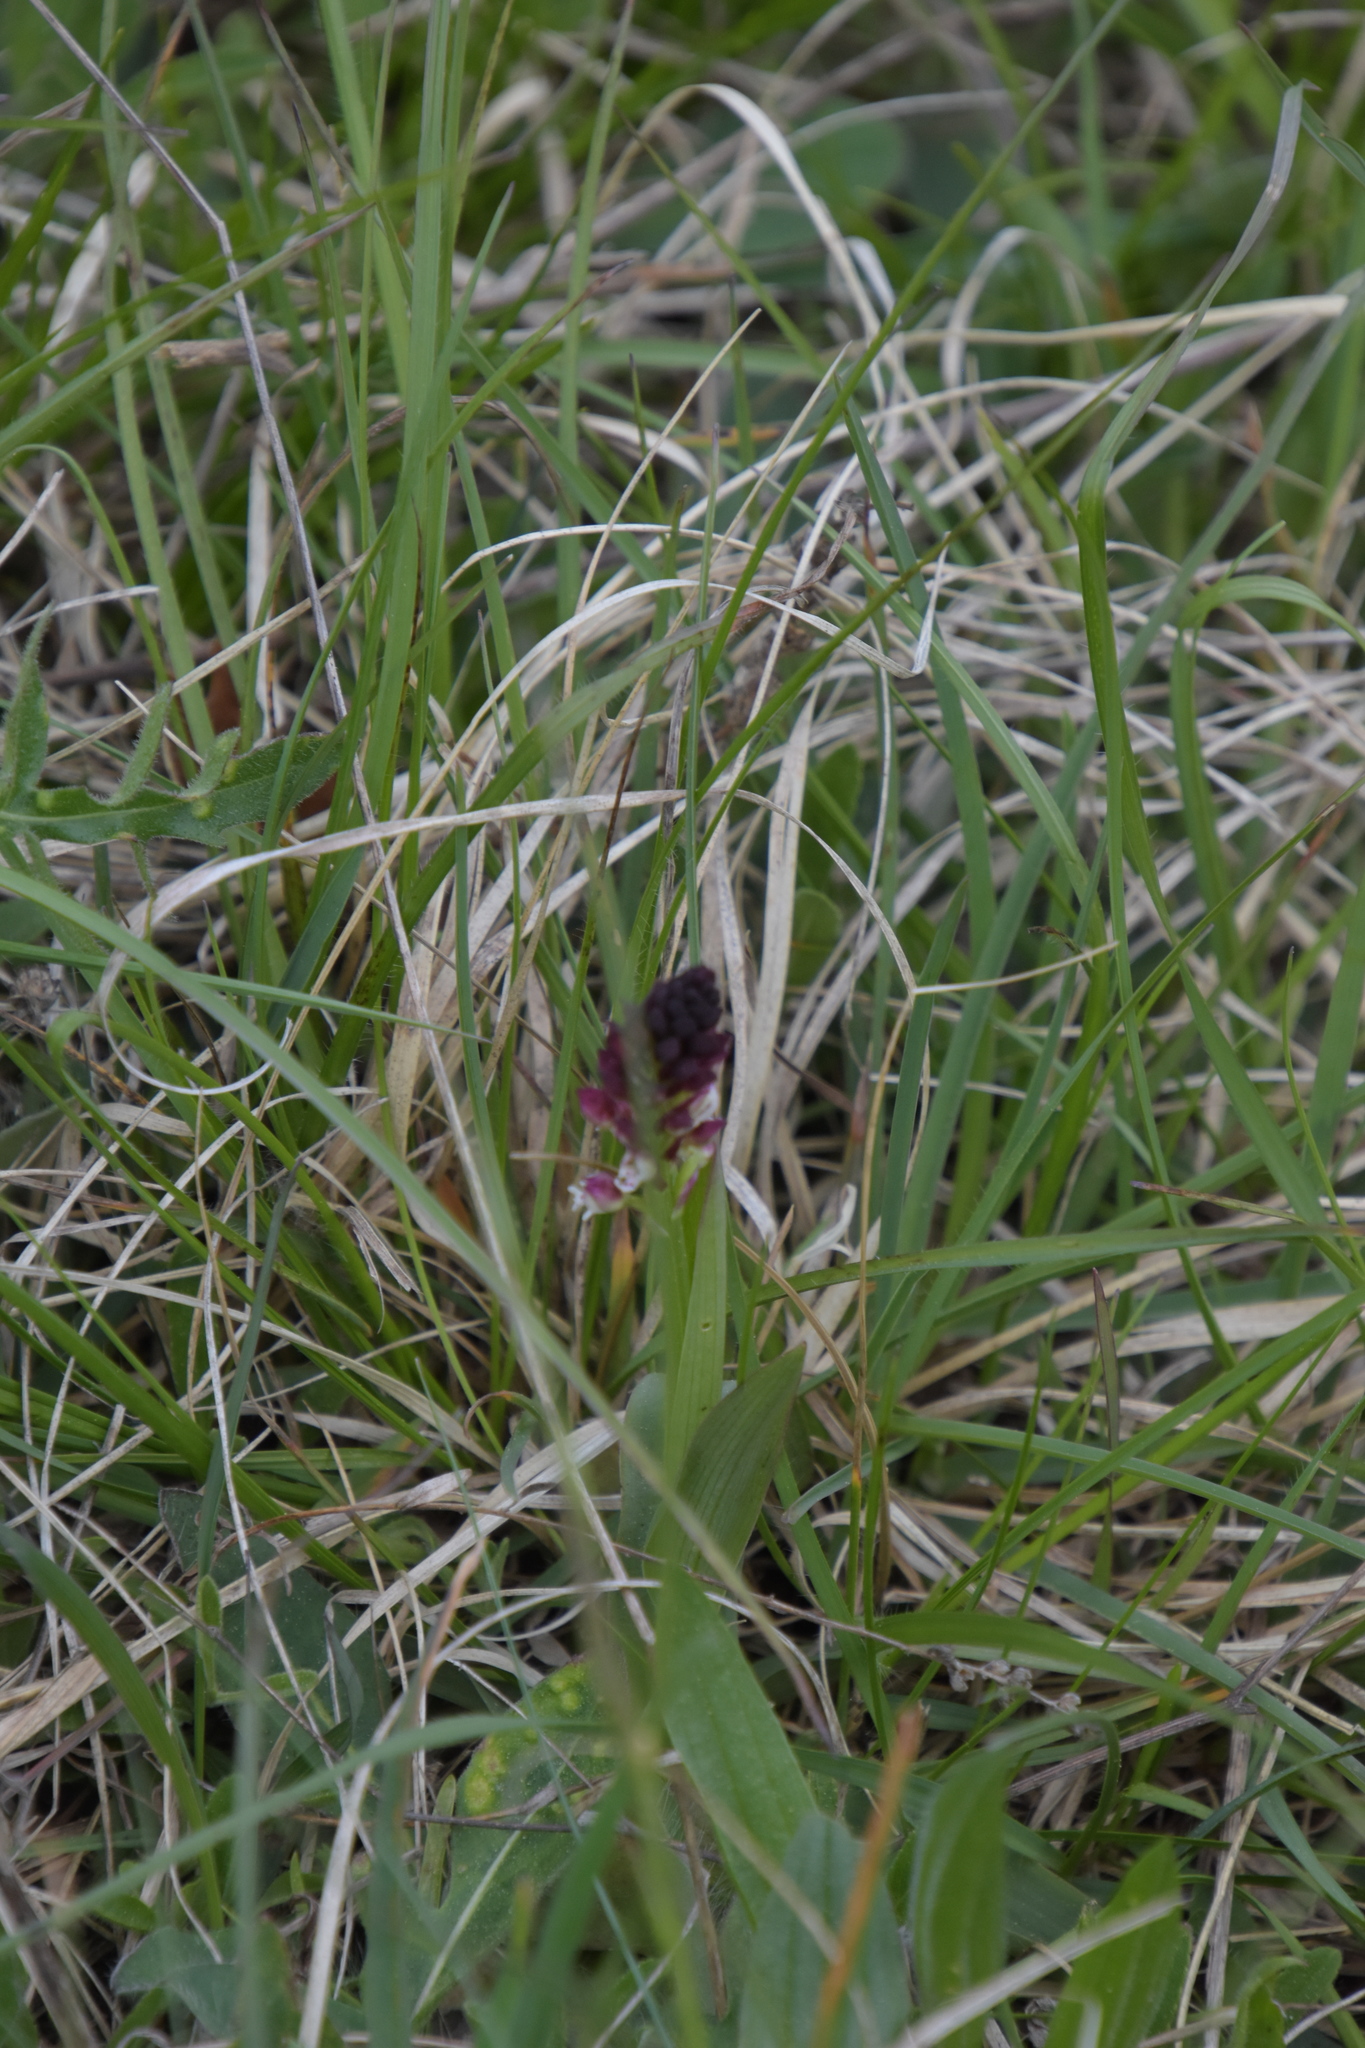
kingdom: Plantae
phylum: Tracheophyta
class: Liliopsida
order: Asparagales
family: Orchidaceae
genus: Neotinea
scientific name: Neotinea ustulata
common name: Burnt orchid
